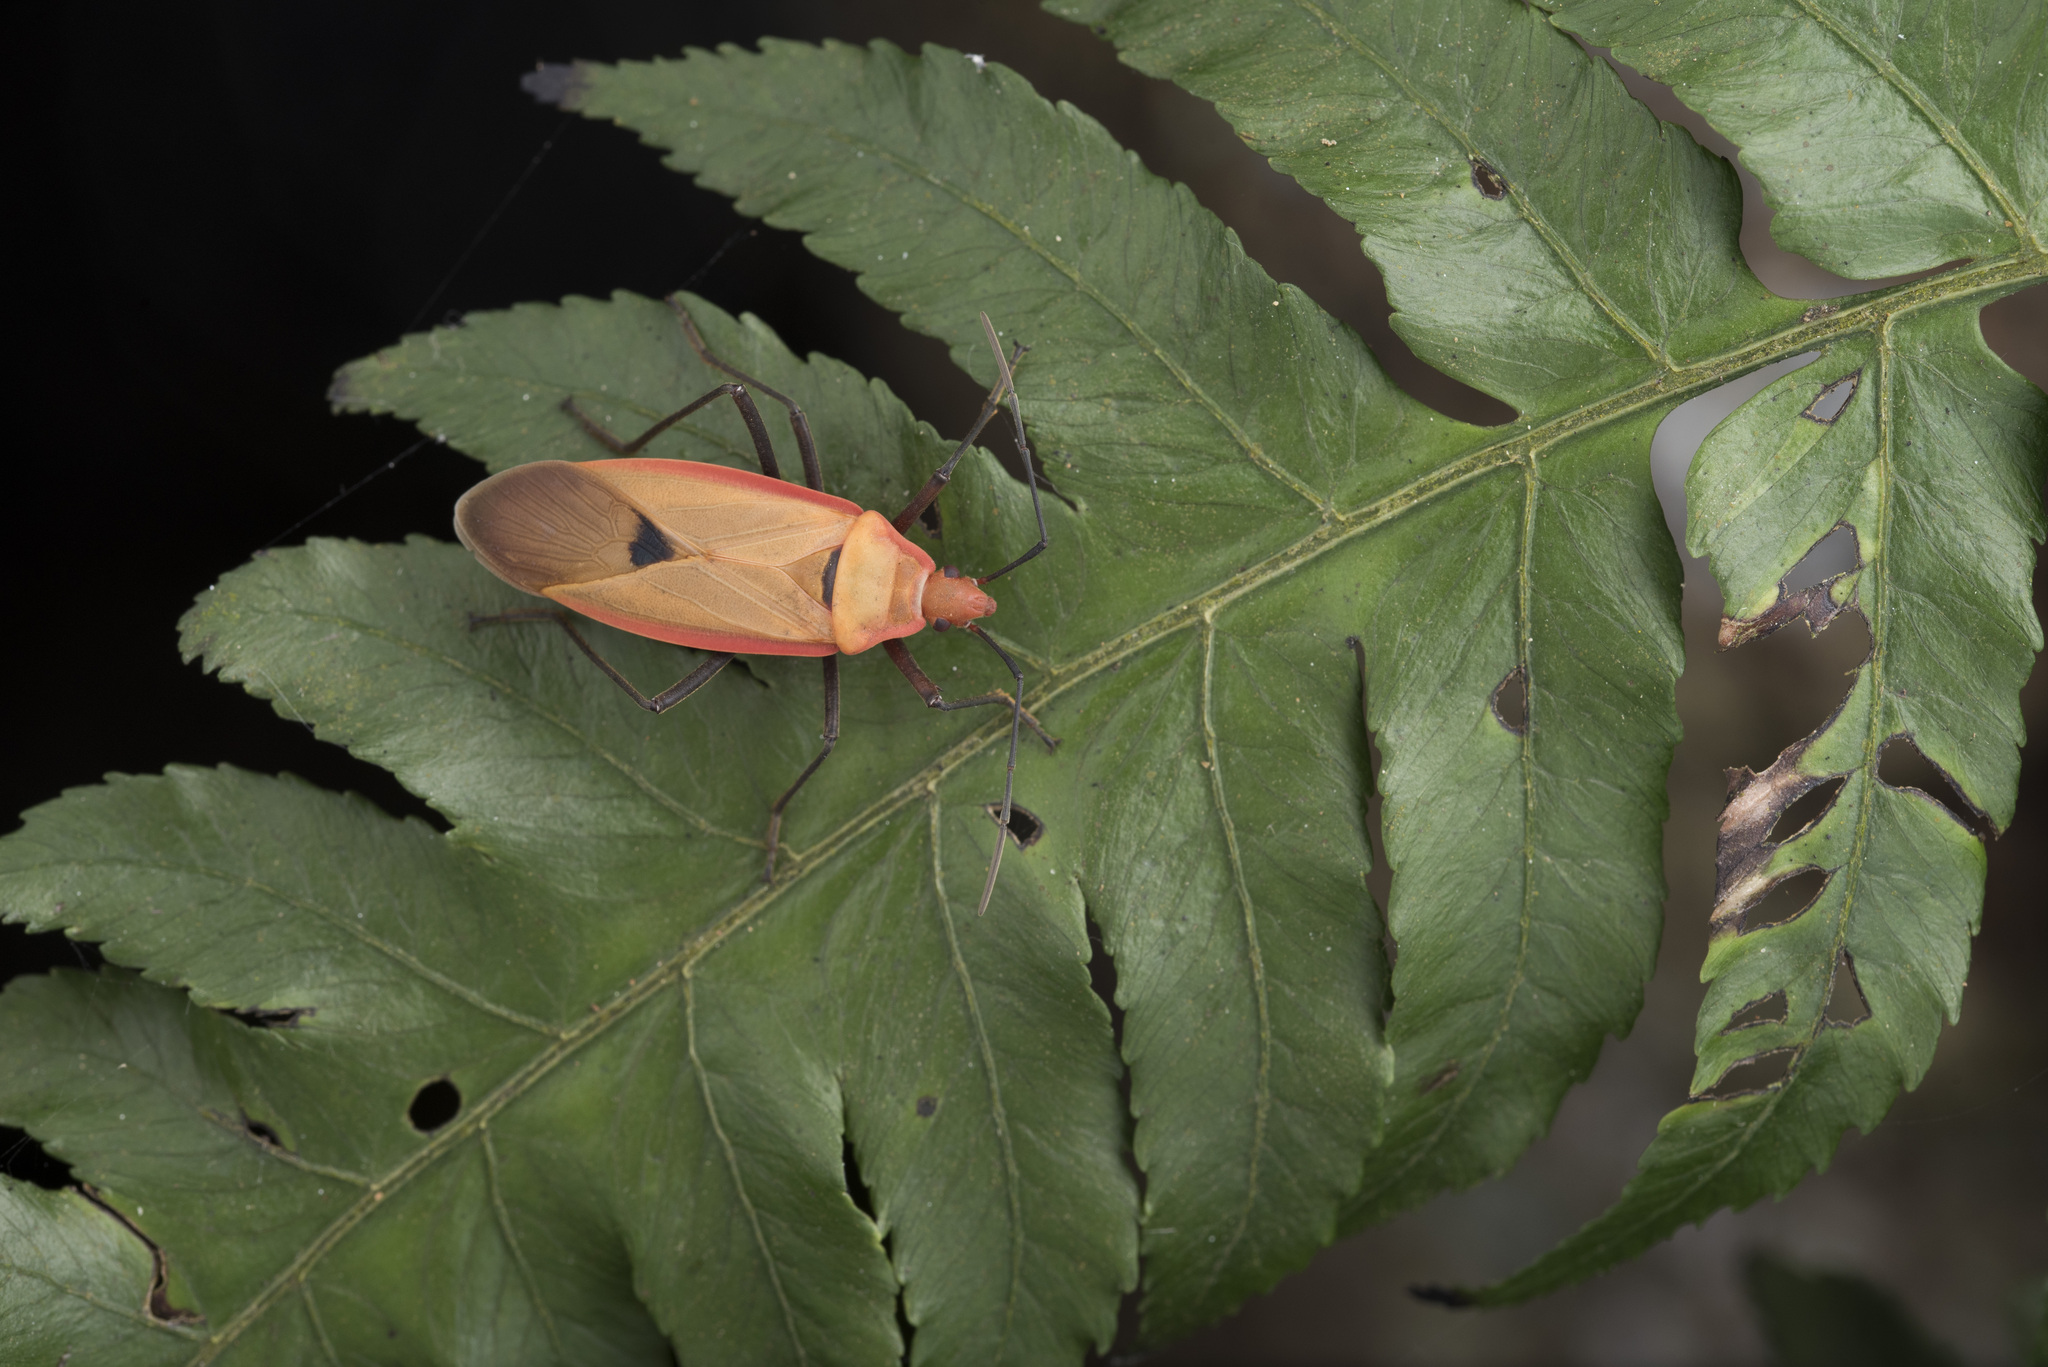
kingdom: Animalia
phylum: Arthropoda
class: Insecta
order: Hemiptera
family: Pyrrhocoridae
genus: Dysdercus
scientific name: Dysdercus fuscomaculatus
